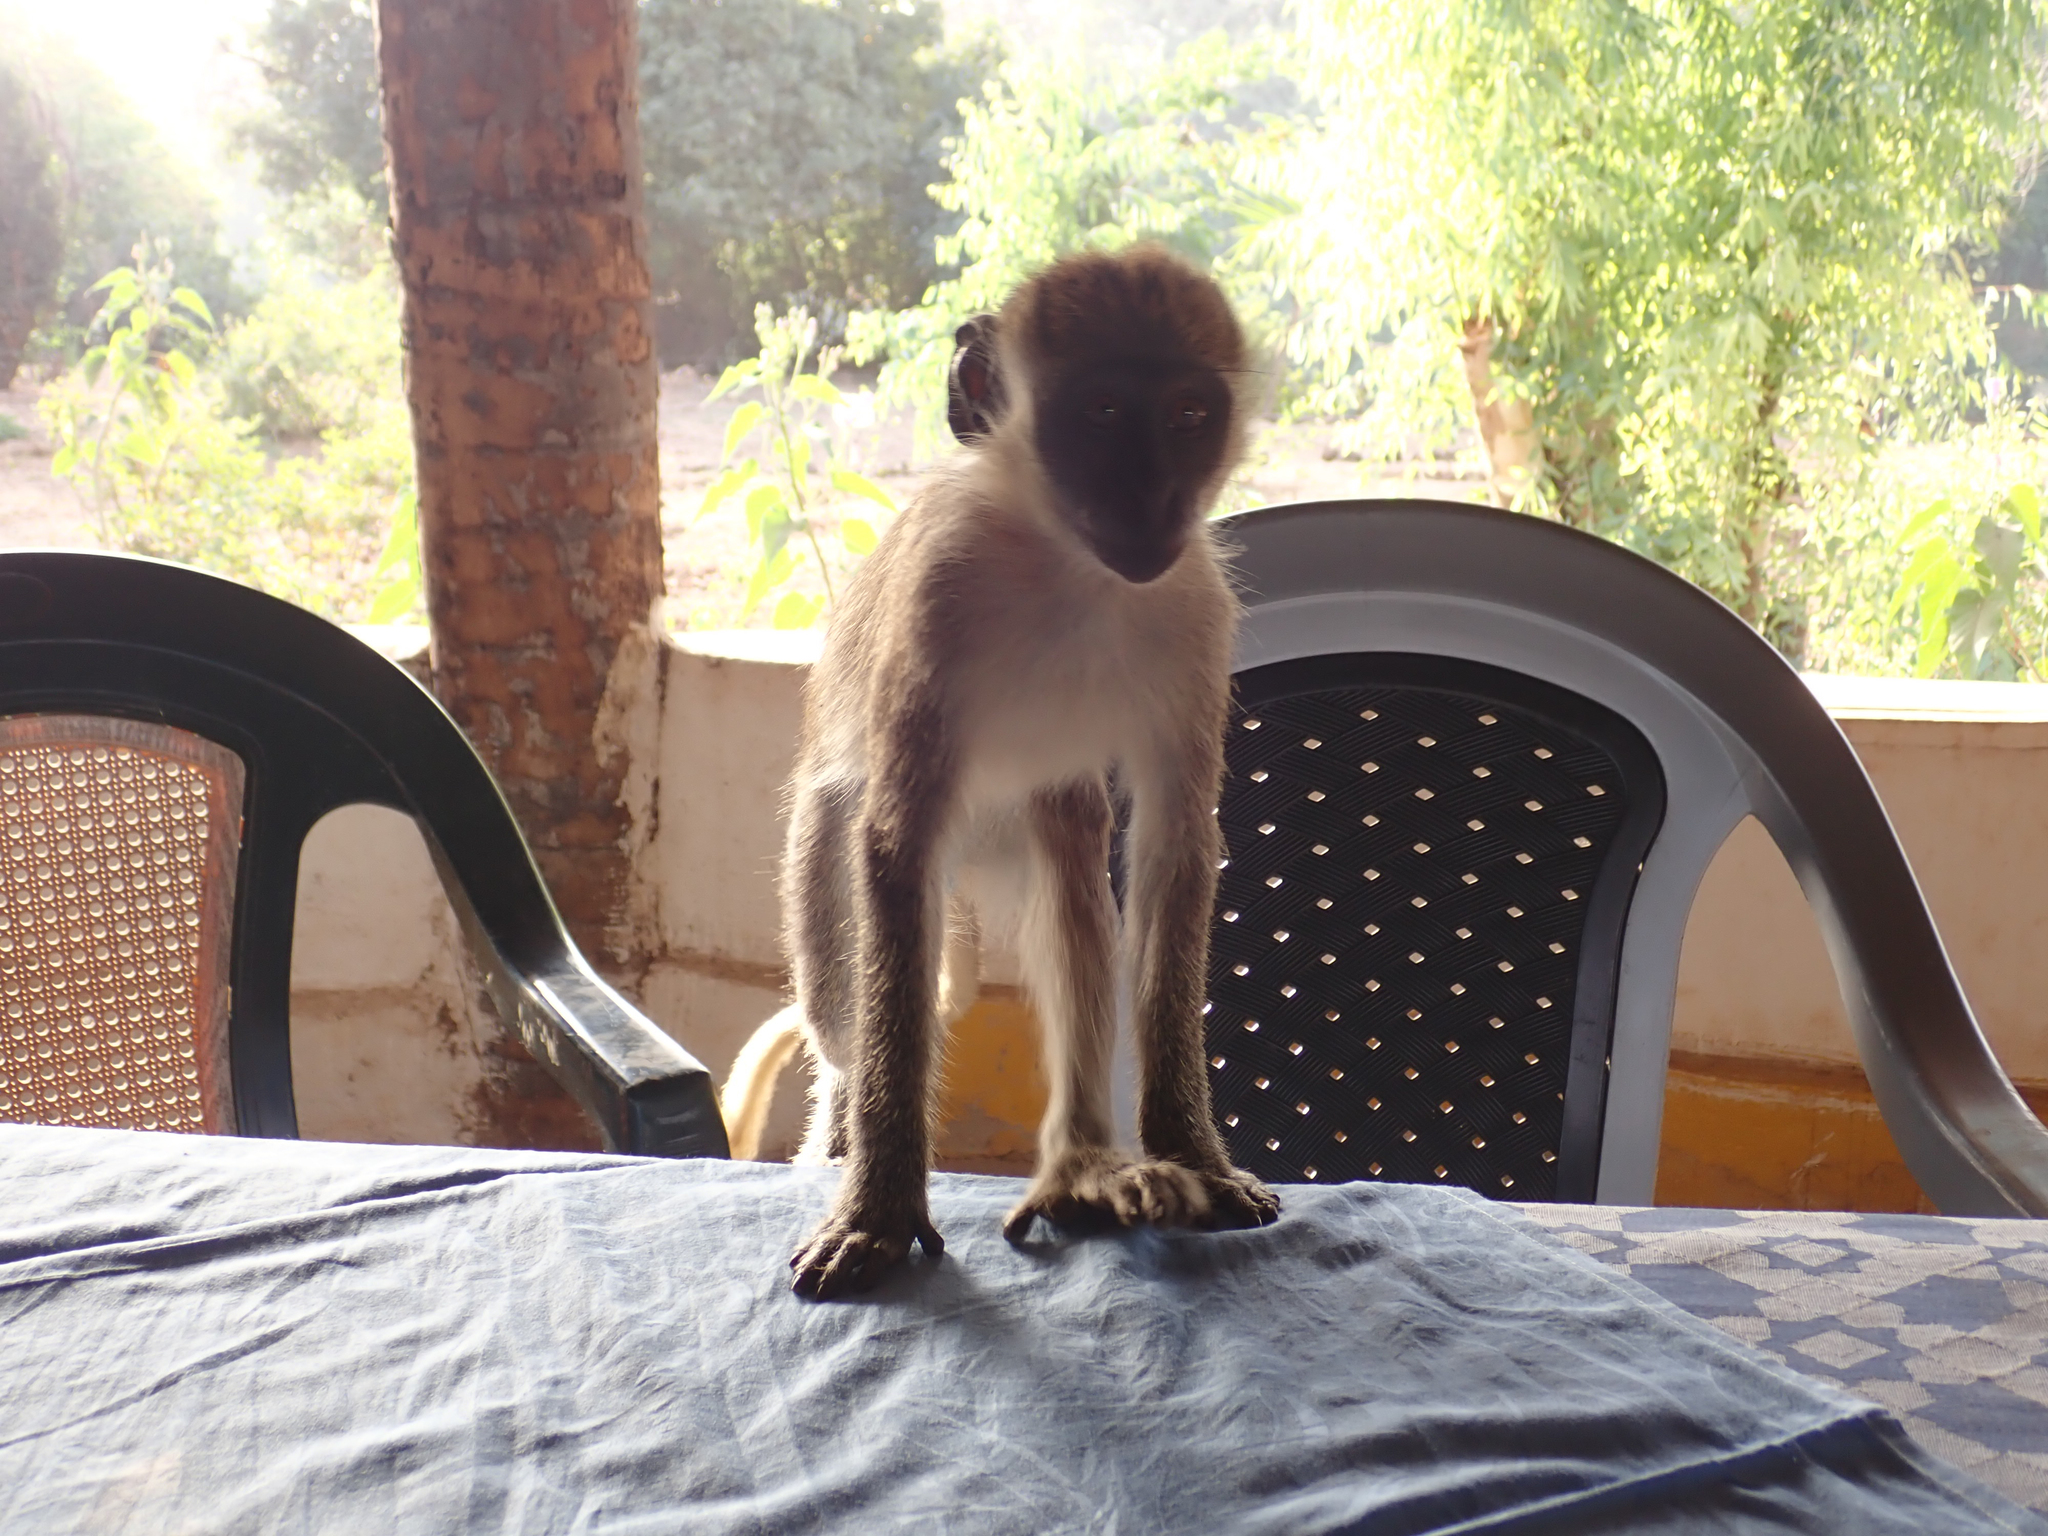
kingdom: Animalia
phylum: Chordata
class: Mammalia
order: Primates
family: Cercopithecidae
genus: Chlorocebus
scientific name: Chlorocebus sabaeus
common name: Green monkey
